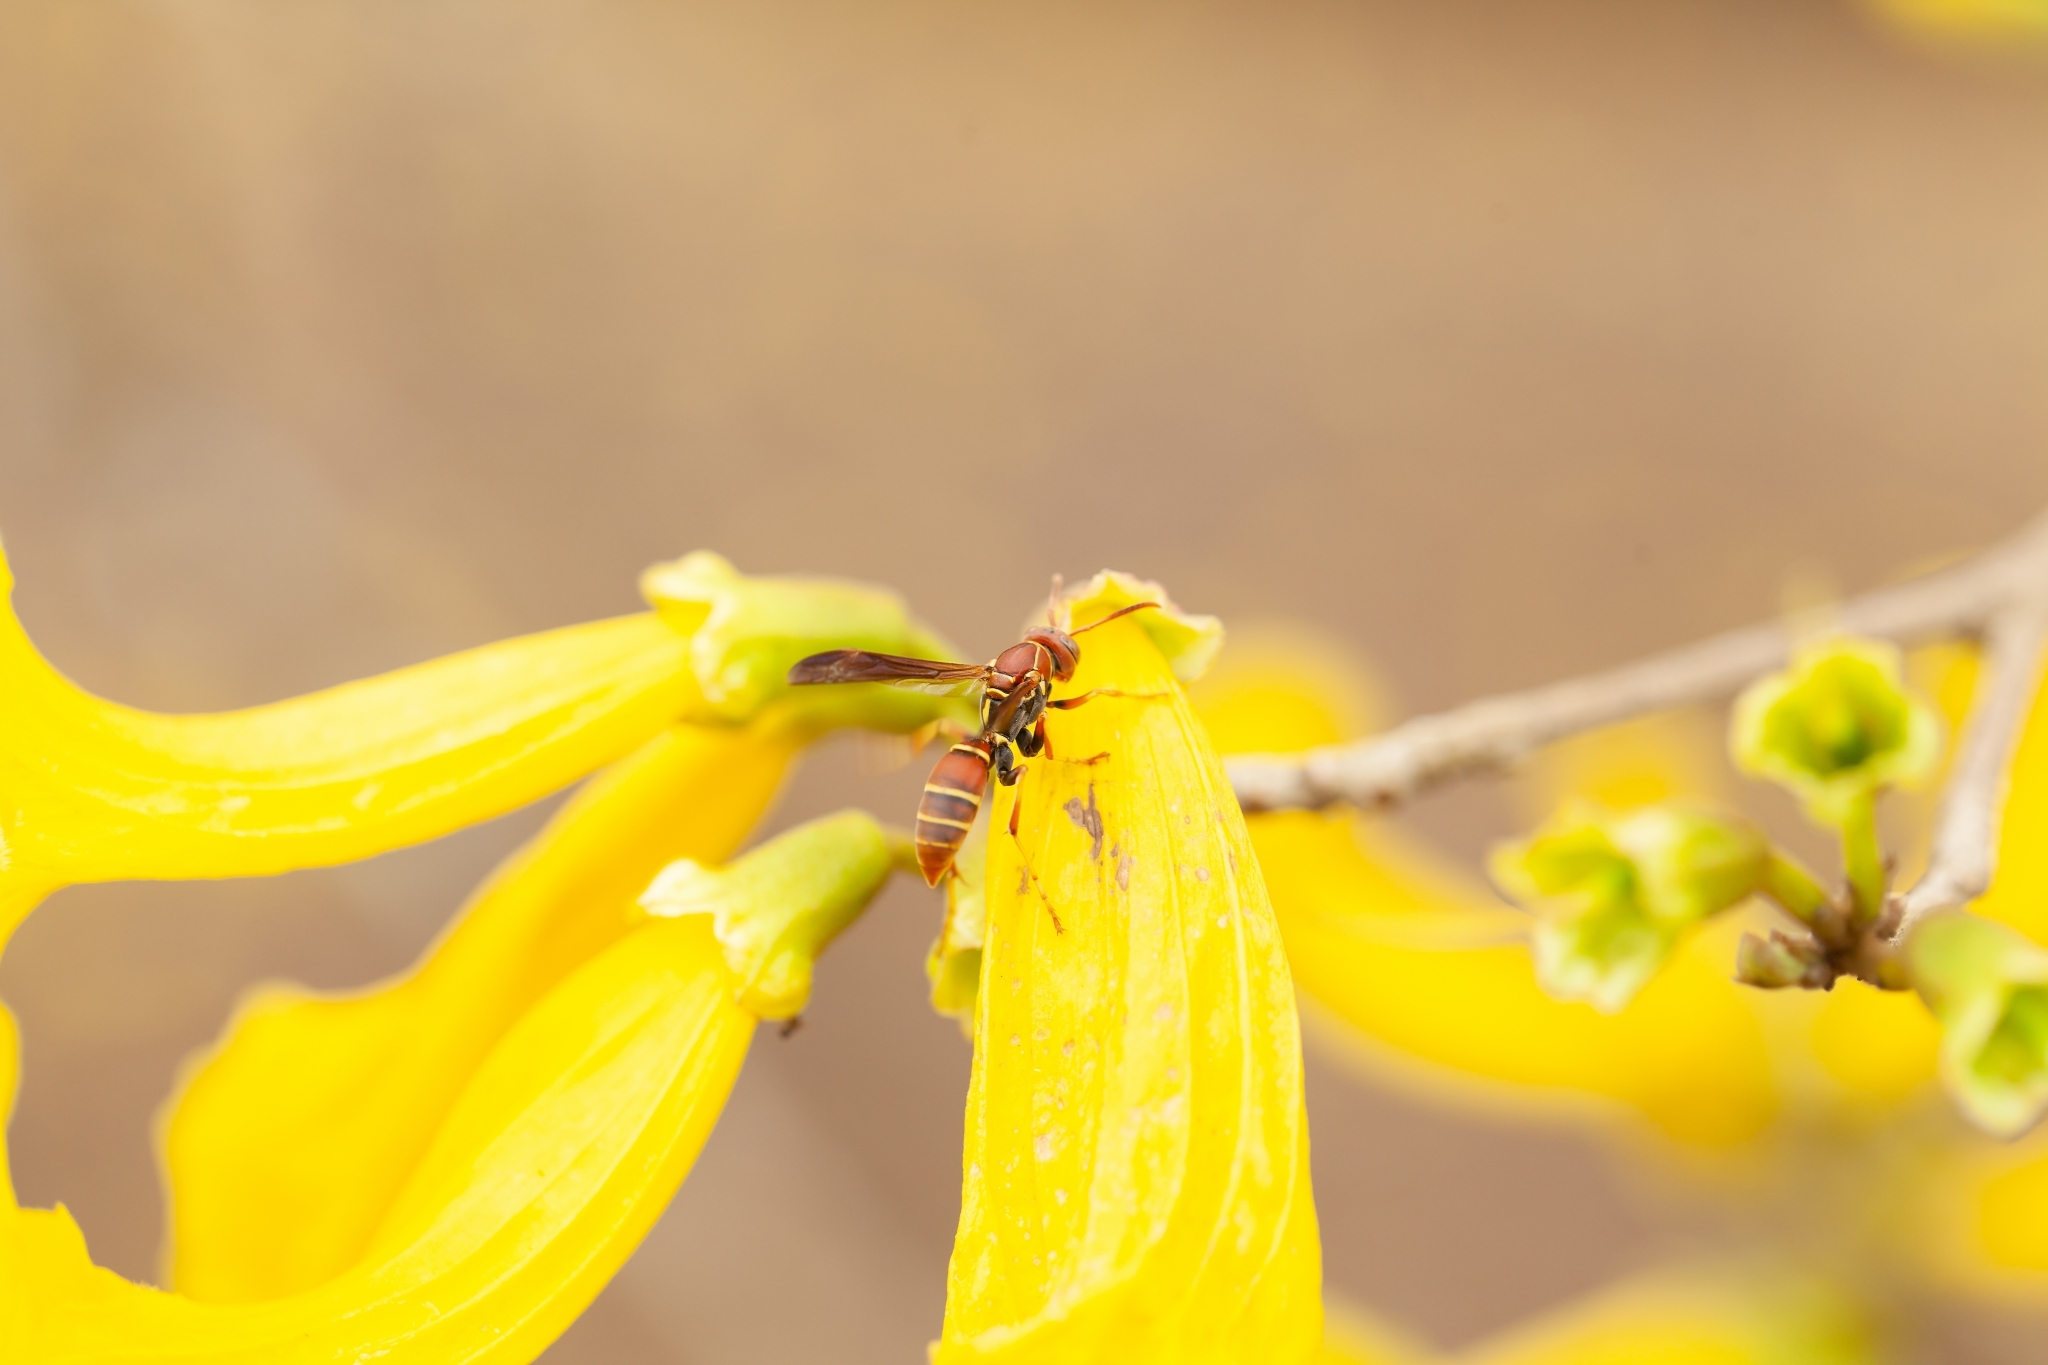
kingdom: Animalia
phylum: Arthropoda
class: Insecta
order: Hymenoptera
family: Eumenidae
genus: Polistes
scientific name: Polistes dorsalis
